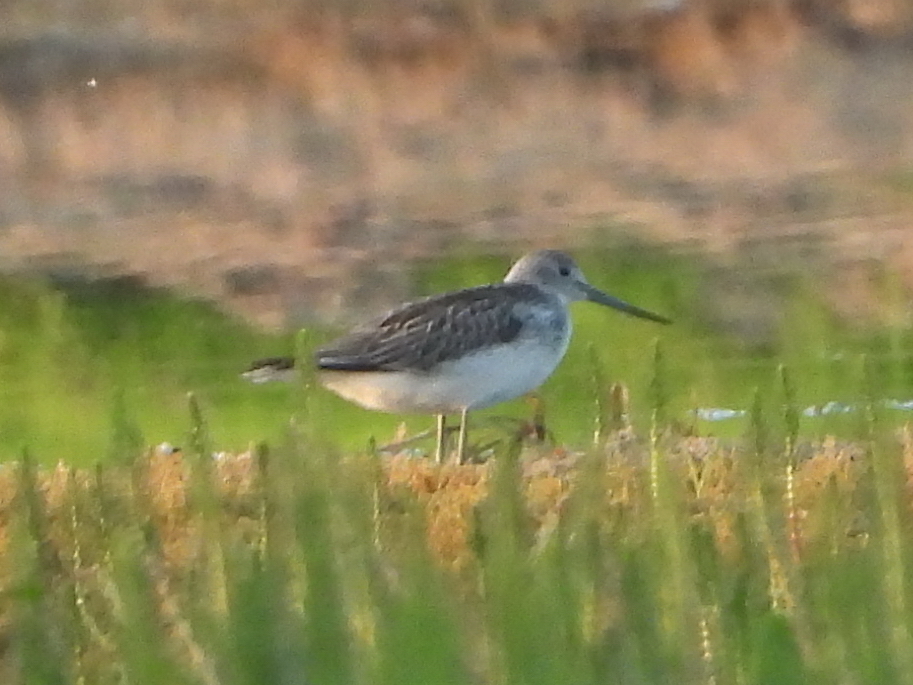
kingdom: Animalia
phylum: Chordata
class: Aves
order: Charadriiformes
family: Scolopacidae
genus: Tringa
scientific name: Tringa nebularia
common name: Common greenshank
